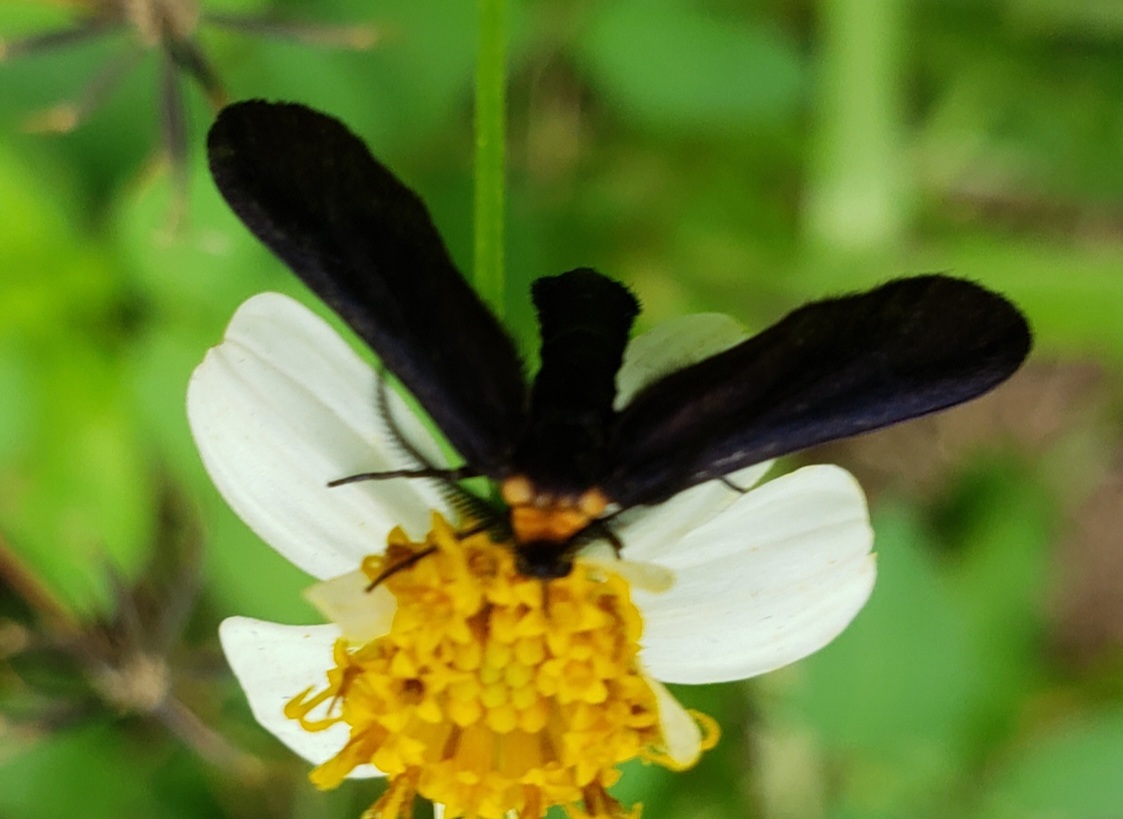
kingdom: Animalia
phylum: Arthropoda
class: Insecta
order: Lepidoptera
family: Zygaenidae
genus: Harrisina
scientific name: Harrisina americana
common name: Grapeleaf skeletonizer moth
